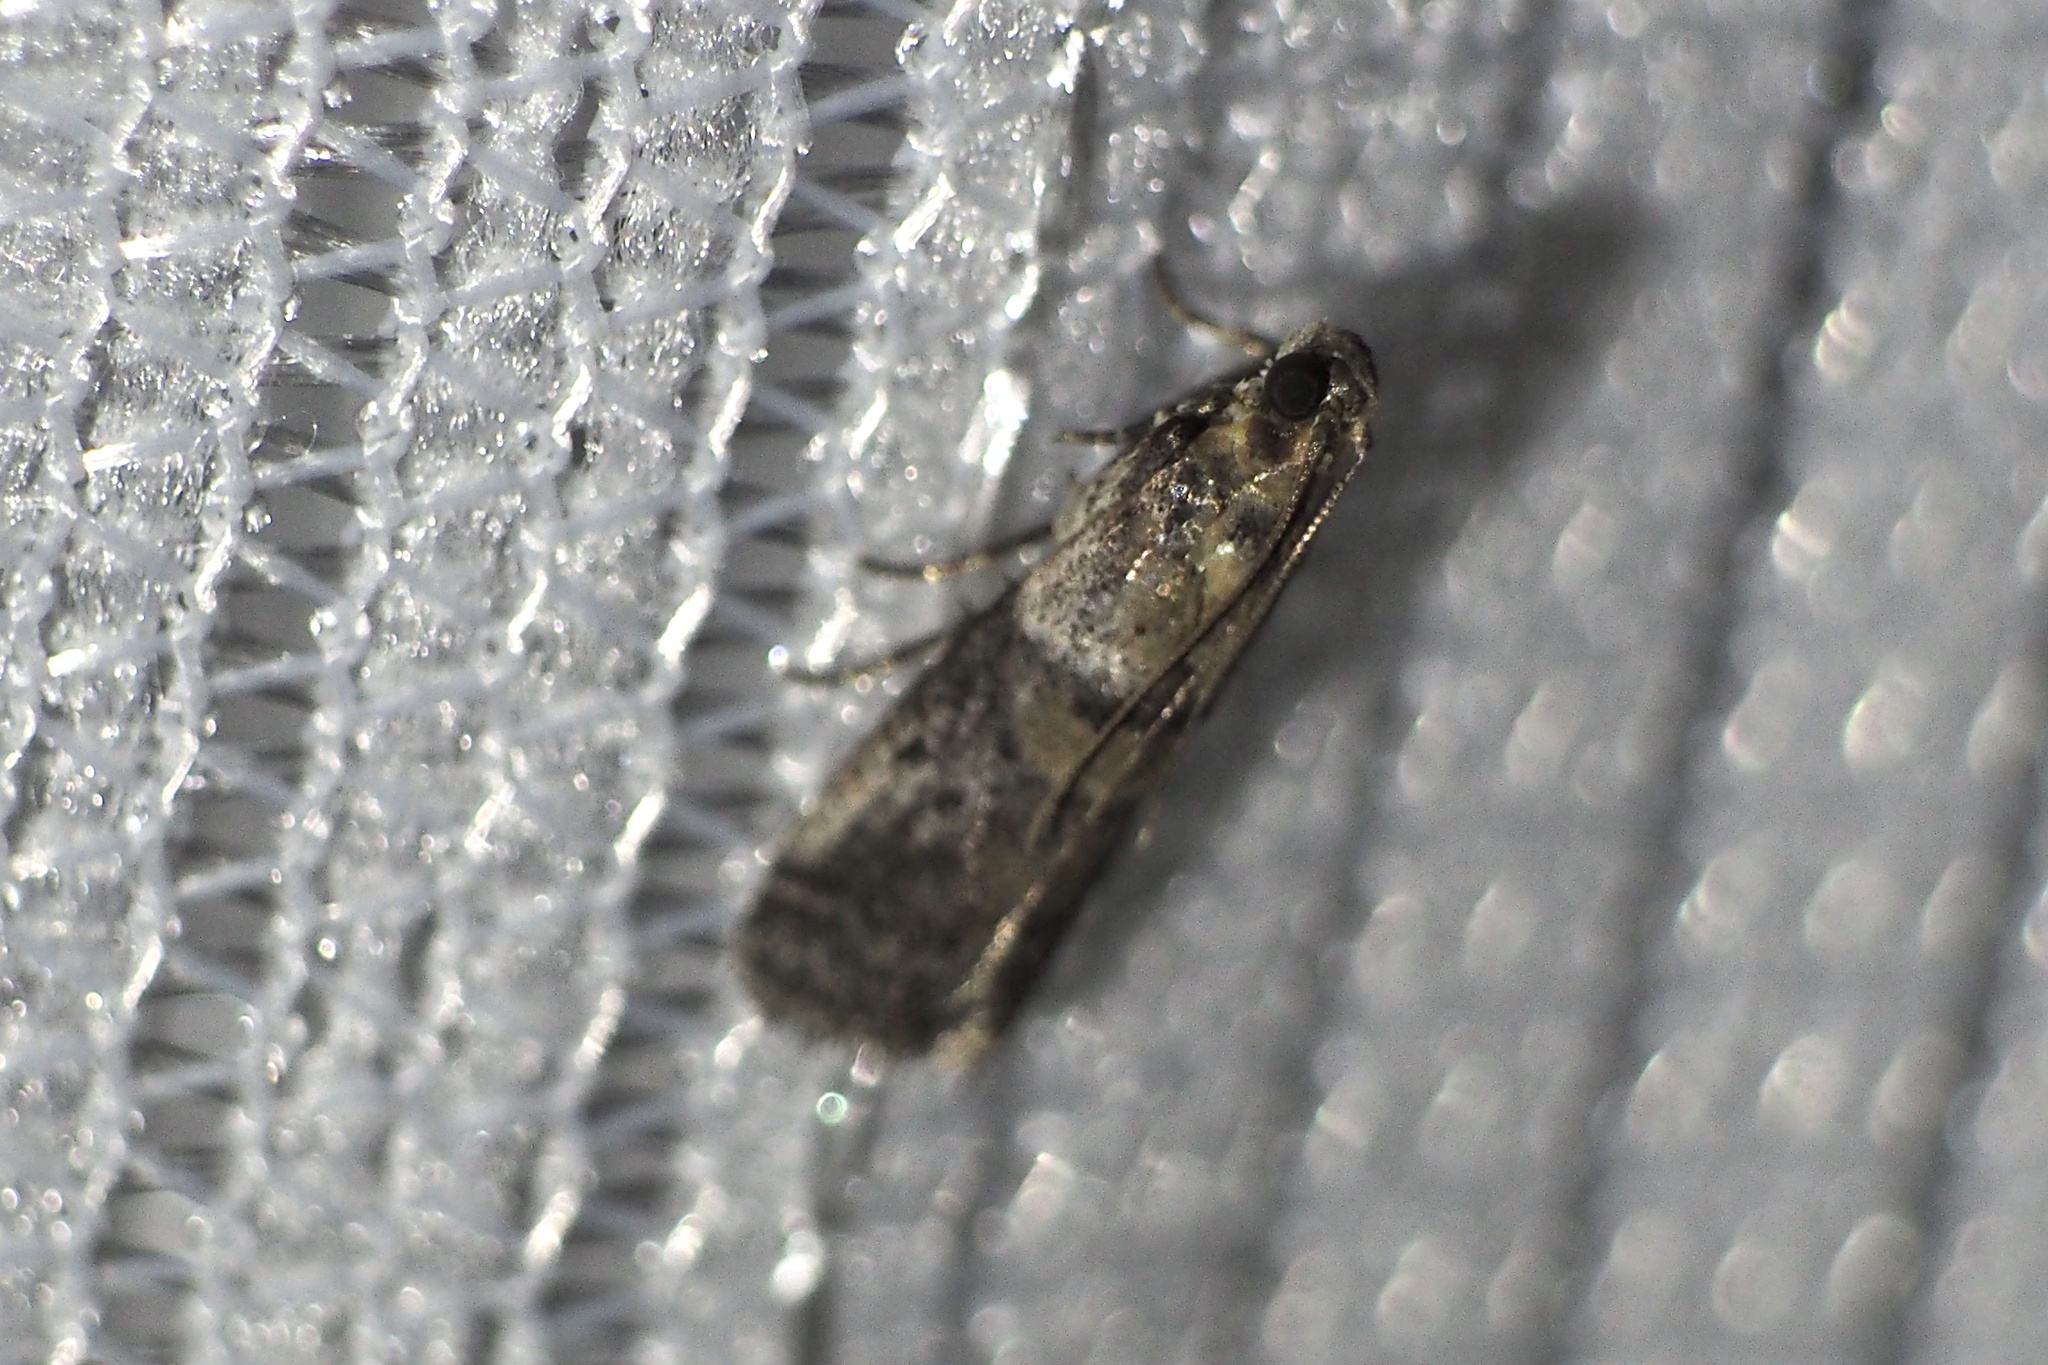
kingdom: Animalia
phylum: Arthropoda
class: Insecta
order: Lepidoptera
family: Pyralidae
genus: Acrobasis
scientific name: Acrobasis tricolorella
